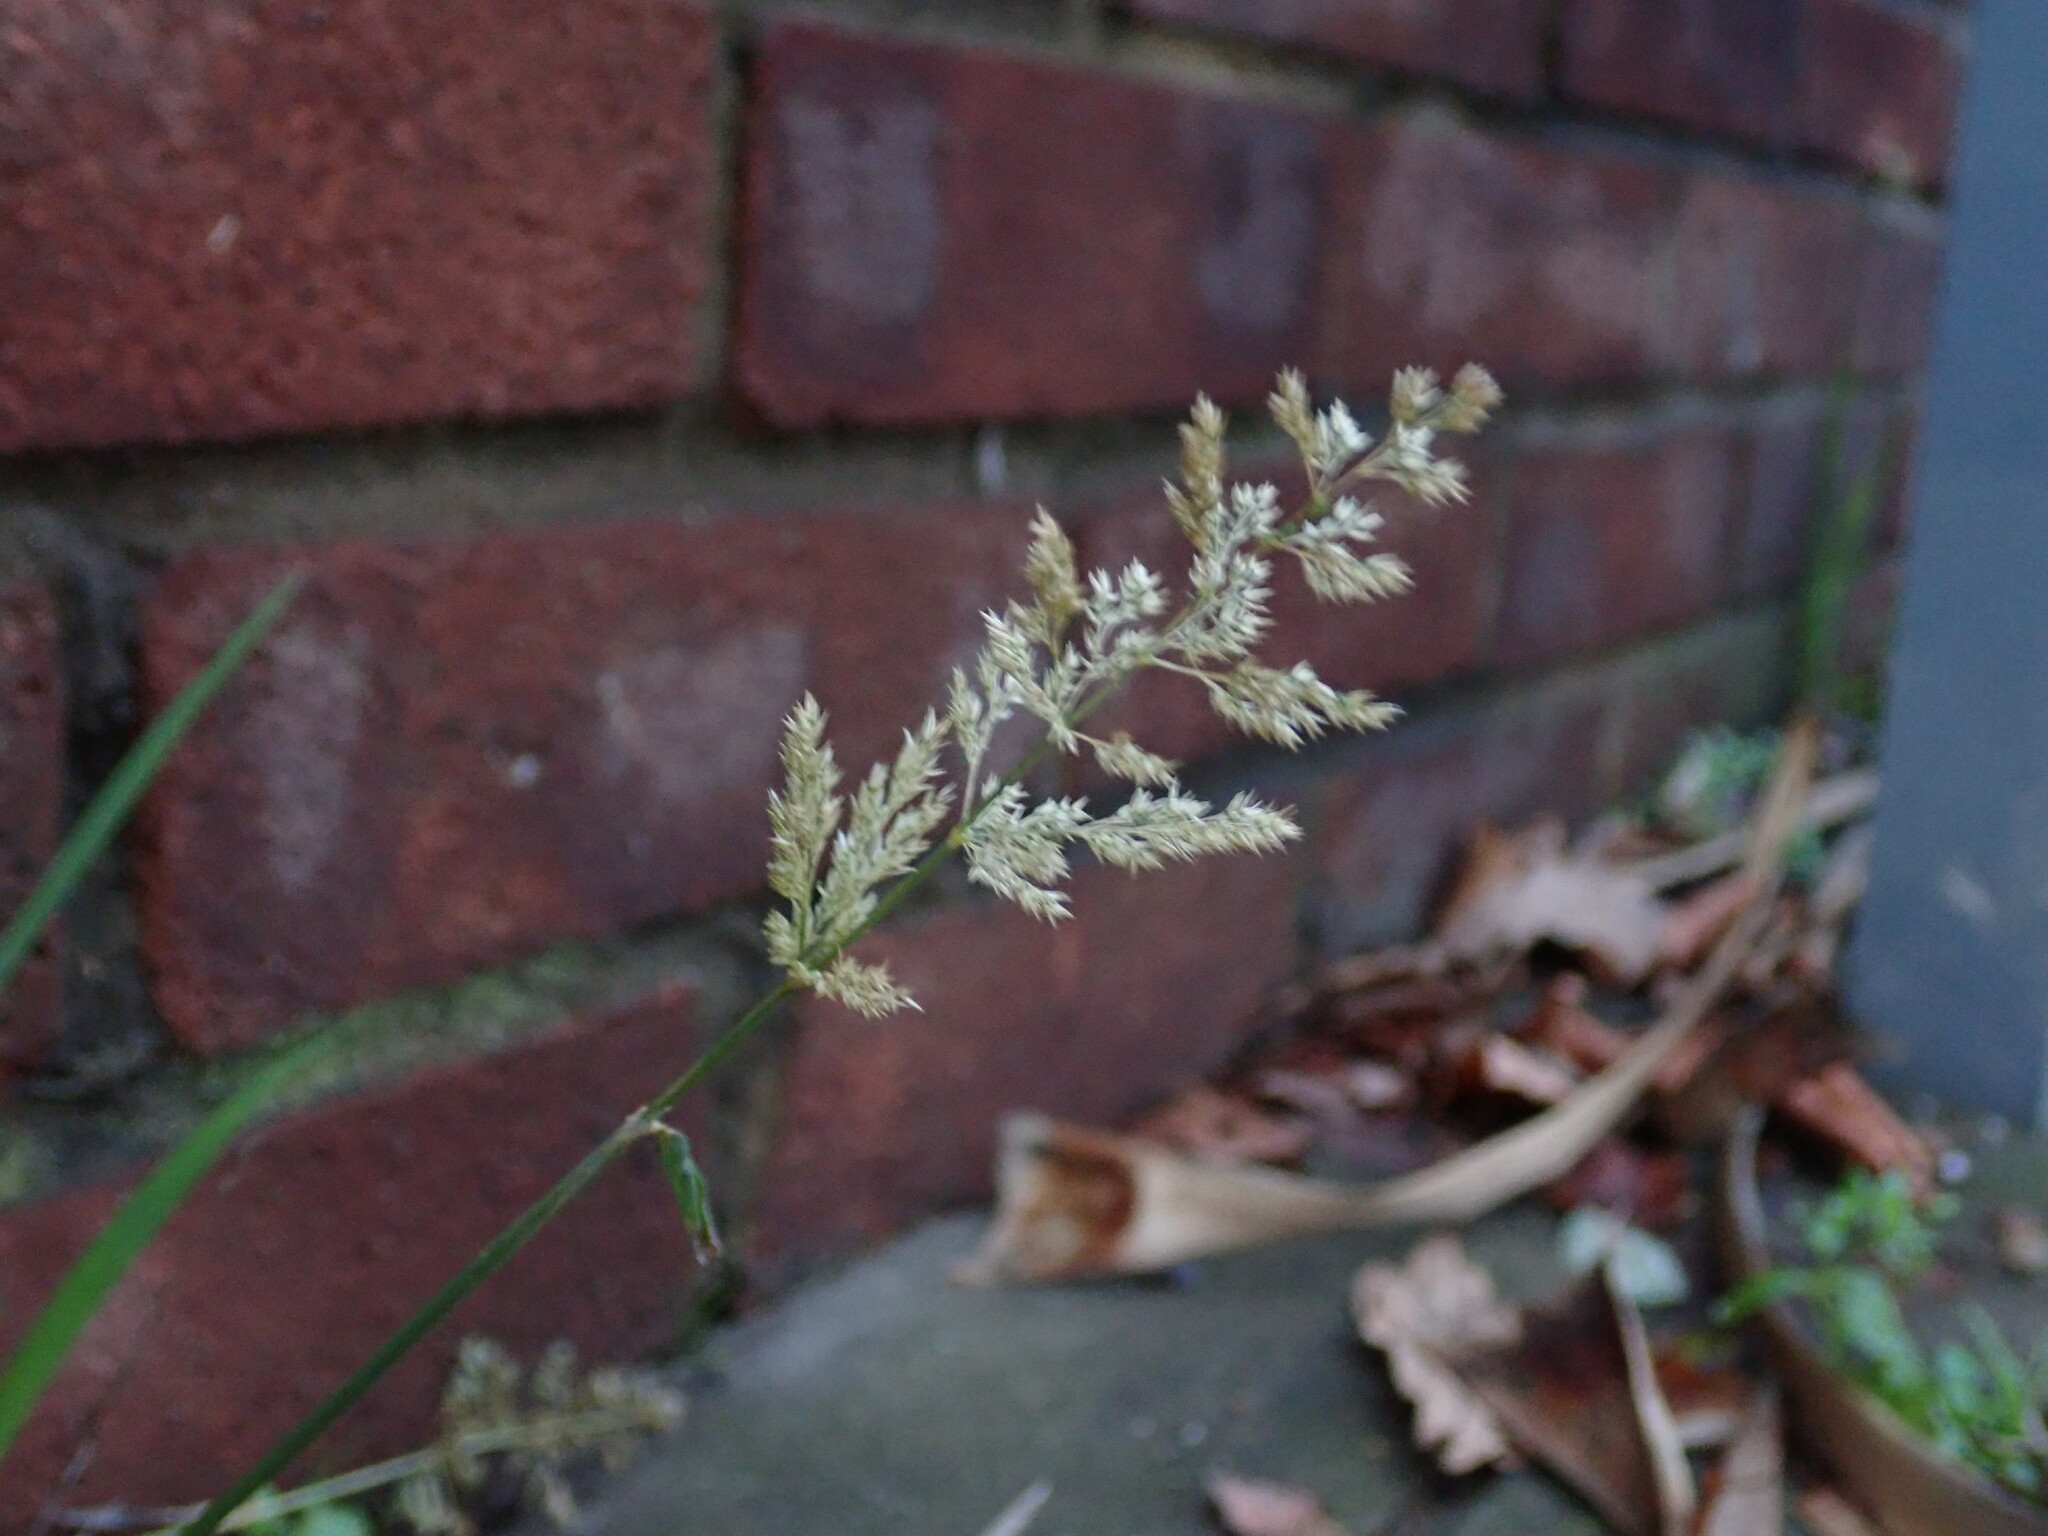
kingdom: Plantae
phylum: Tracheophyta
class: Liliopsida
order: Poales
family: Poaceae
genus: Polypogon
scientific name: Polypogon viridis
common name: Water bent
